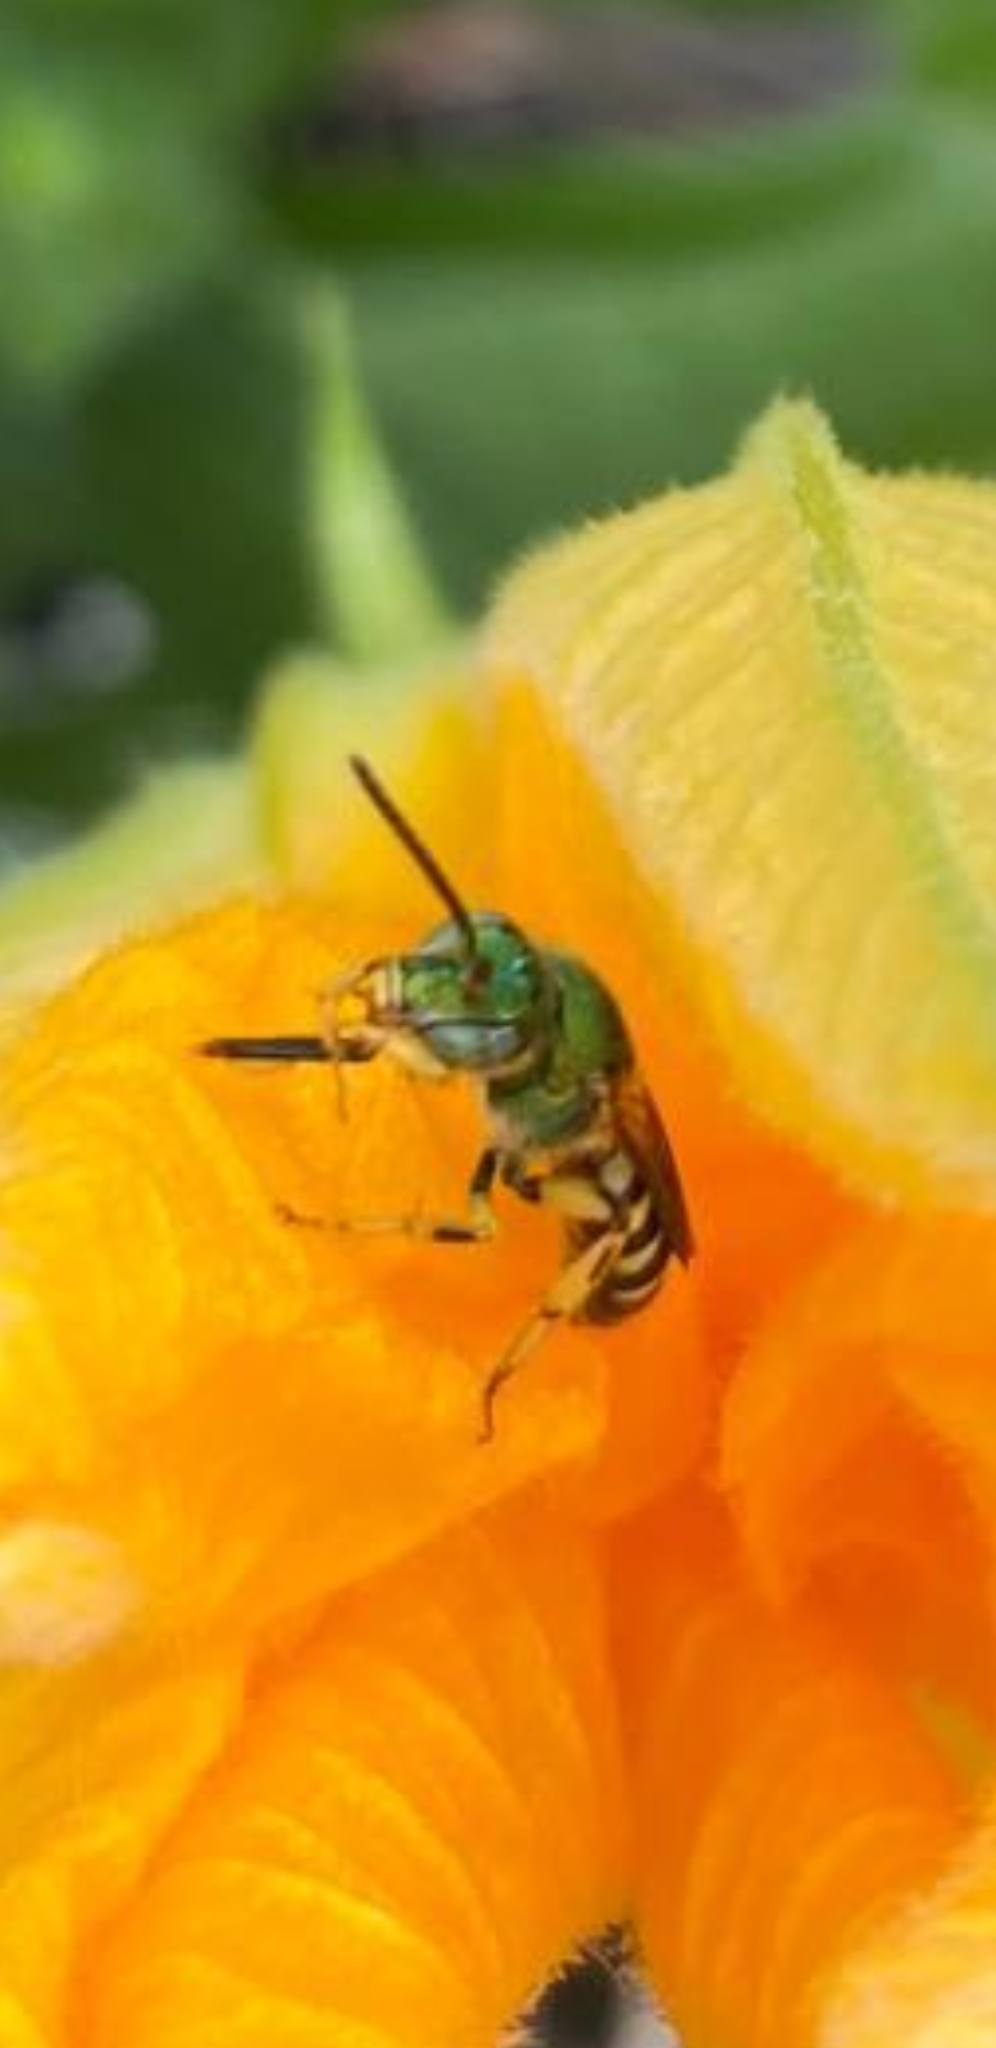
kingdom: Animalia
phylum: Arthropoda
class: Insecta
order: Hymenoptera
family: Halictidae
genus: Agapostemon
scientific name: Agapostemon splendens
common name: Brown-winged striped sweat bee
